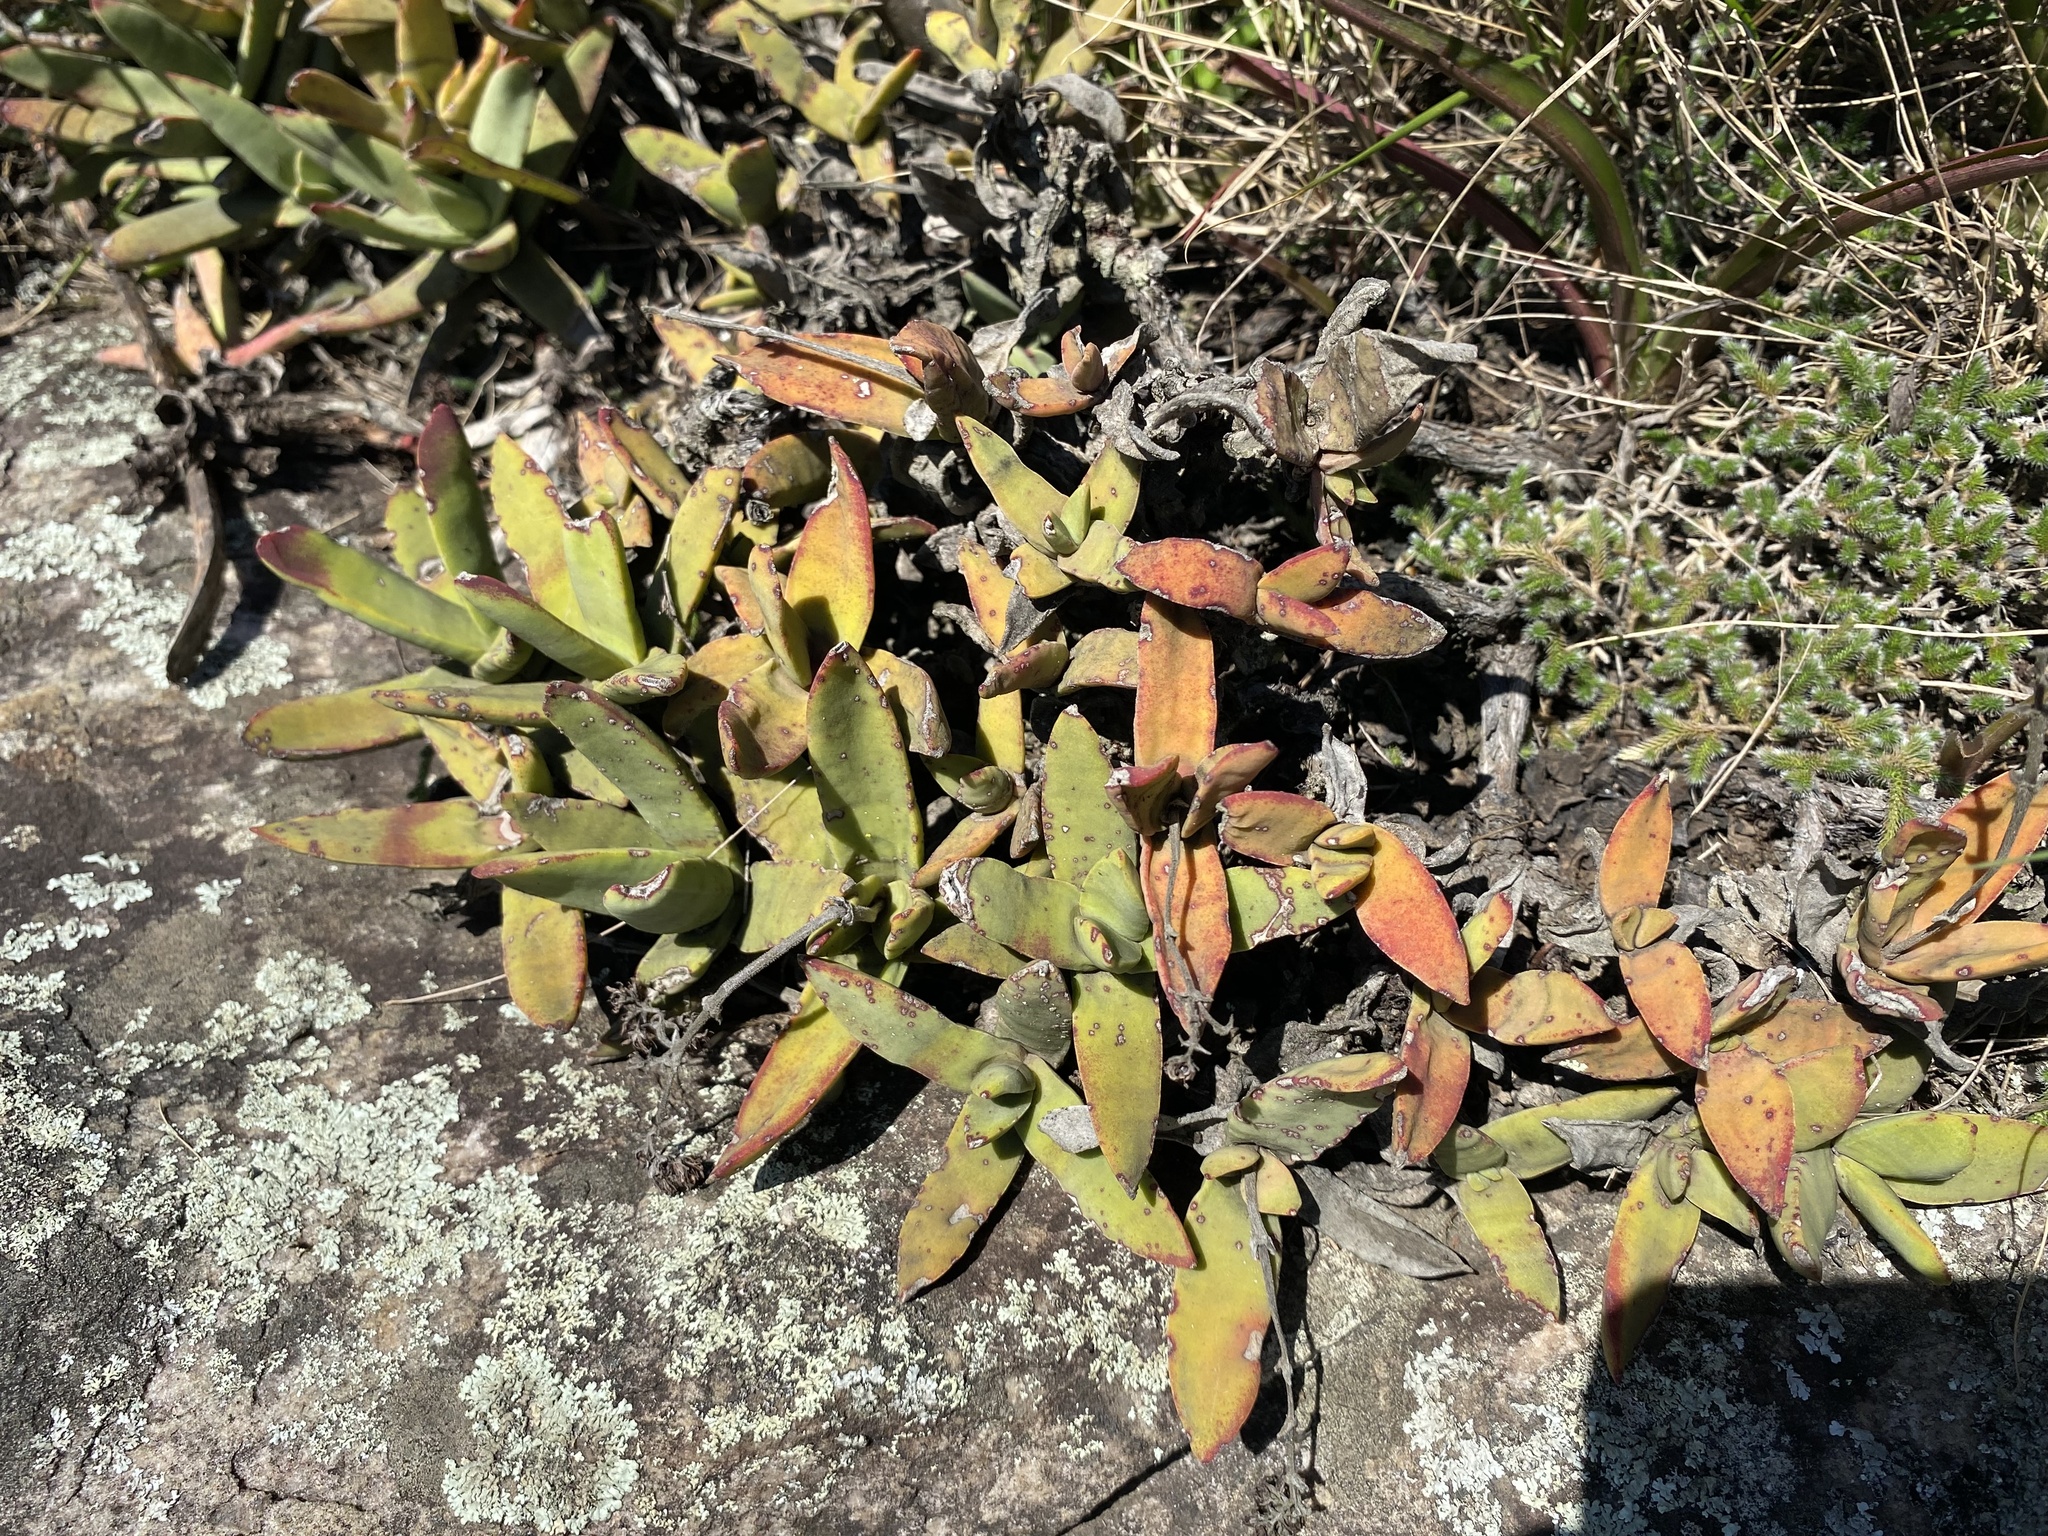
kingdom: Plantae
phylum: Tracheophyta
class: Magnoliopsida
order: Saxifragales
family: Crassulaceae
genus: Crassula
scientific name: Crassula perfoliata
